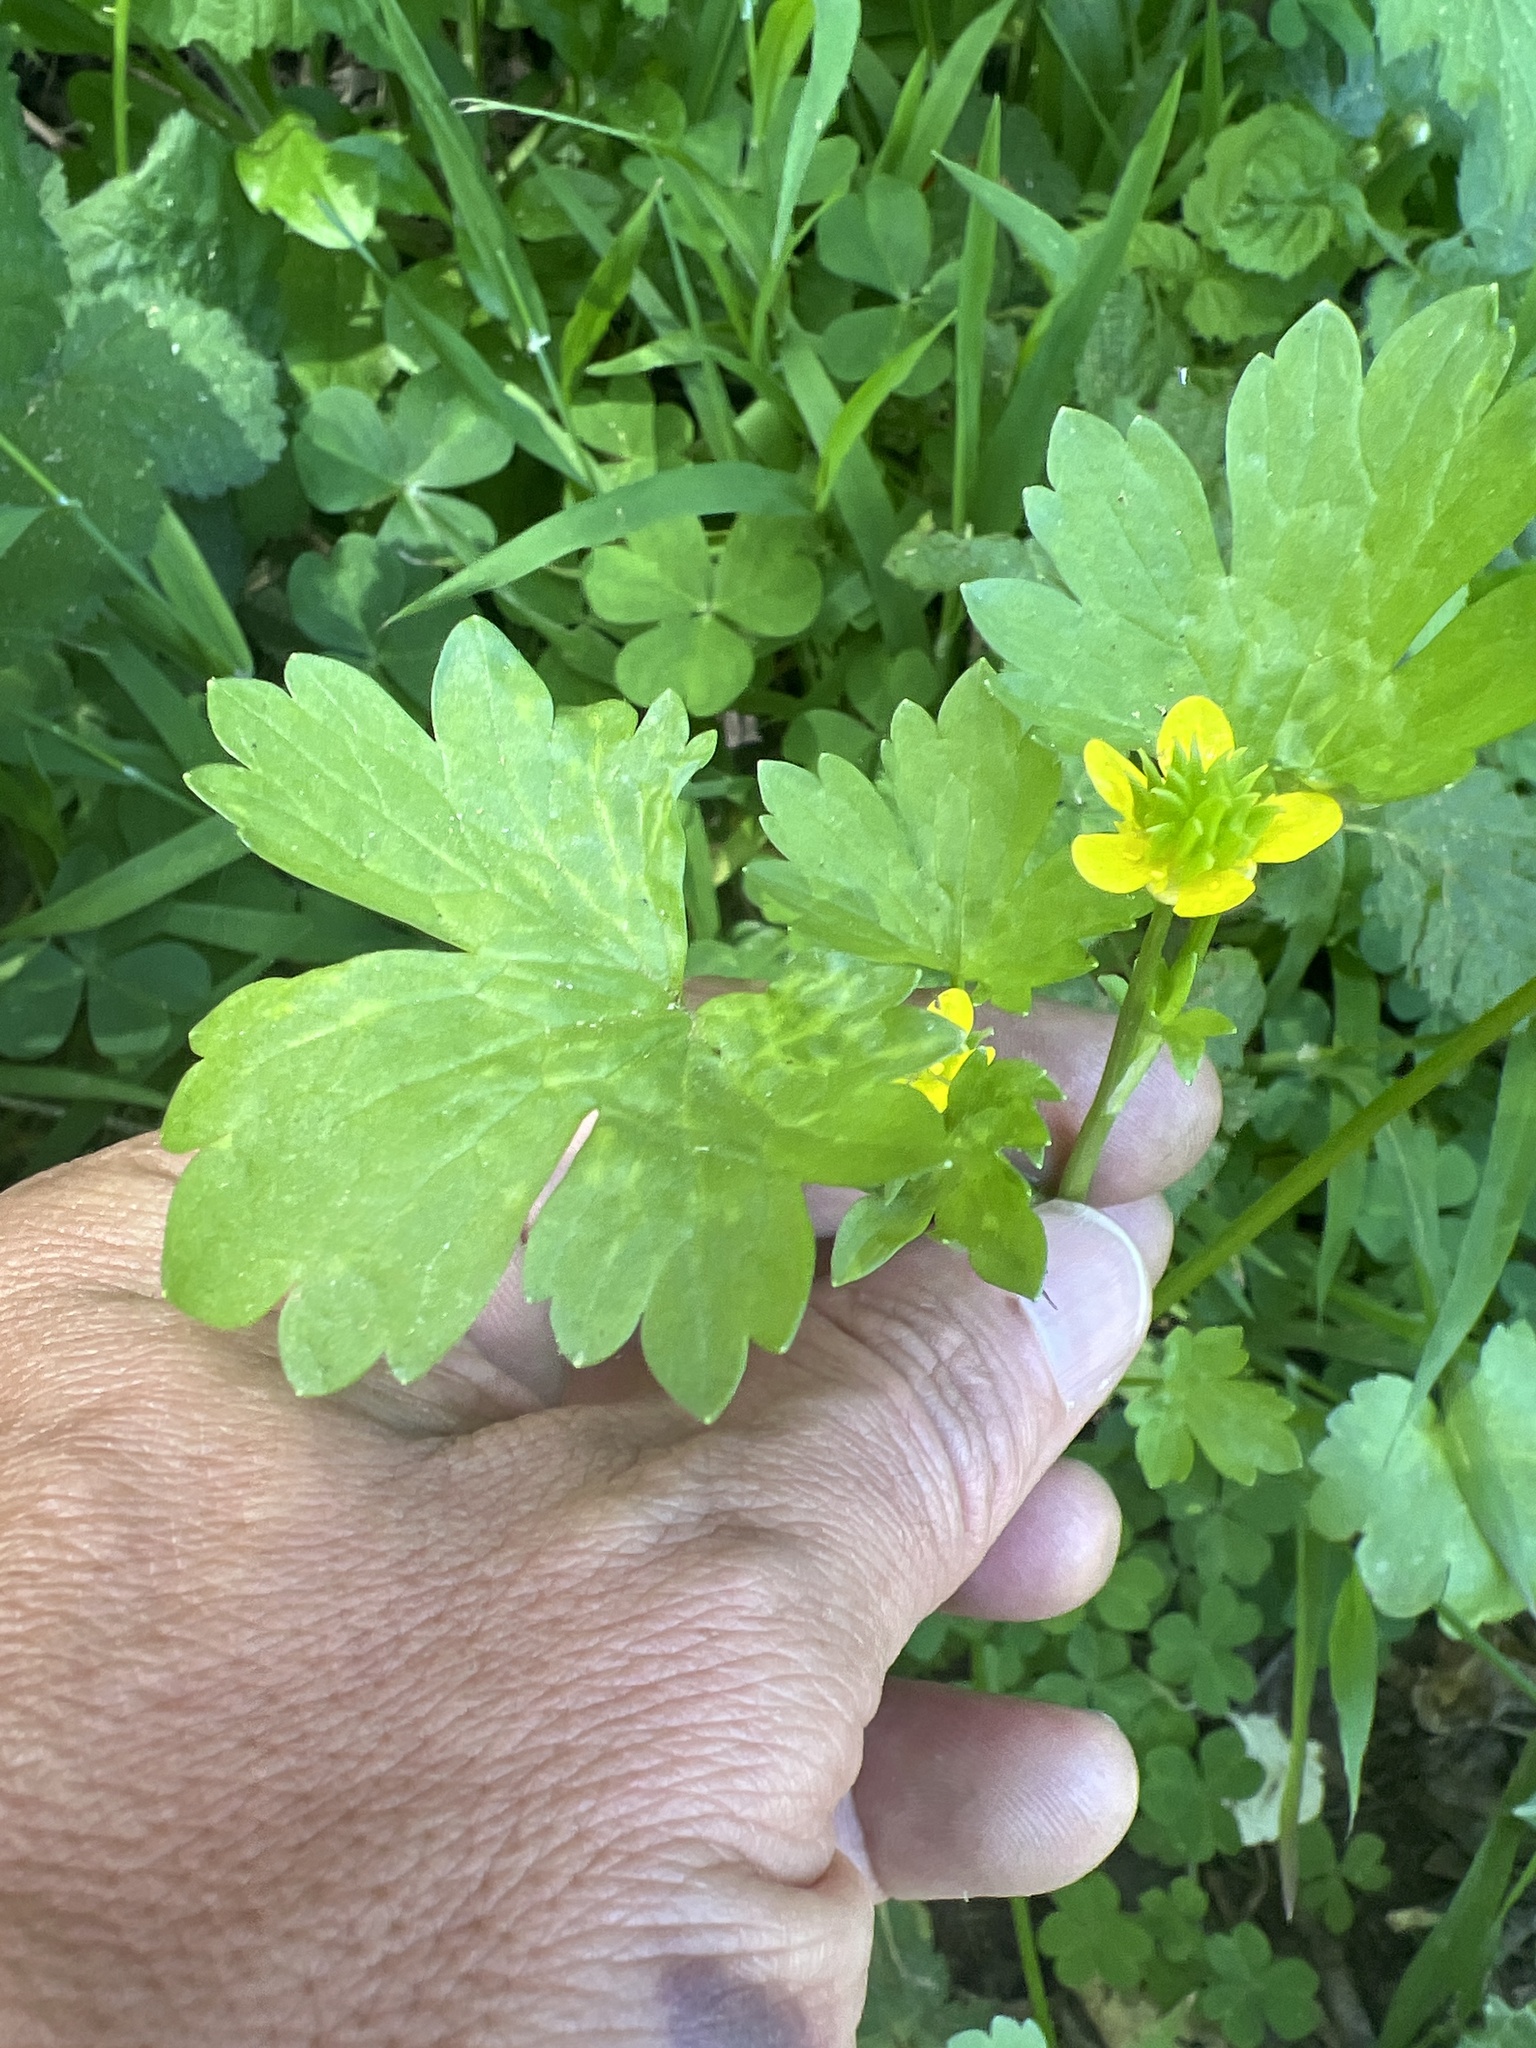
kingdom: Plantae
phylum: Tracheophyta
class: Magnoliopsida
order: Ranunculales
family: Ranunculaceae
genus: Ranunculus
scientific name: Ranunculus muricatus
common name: Rough-fruited buttercup
